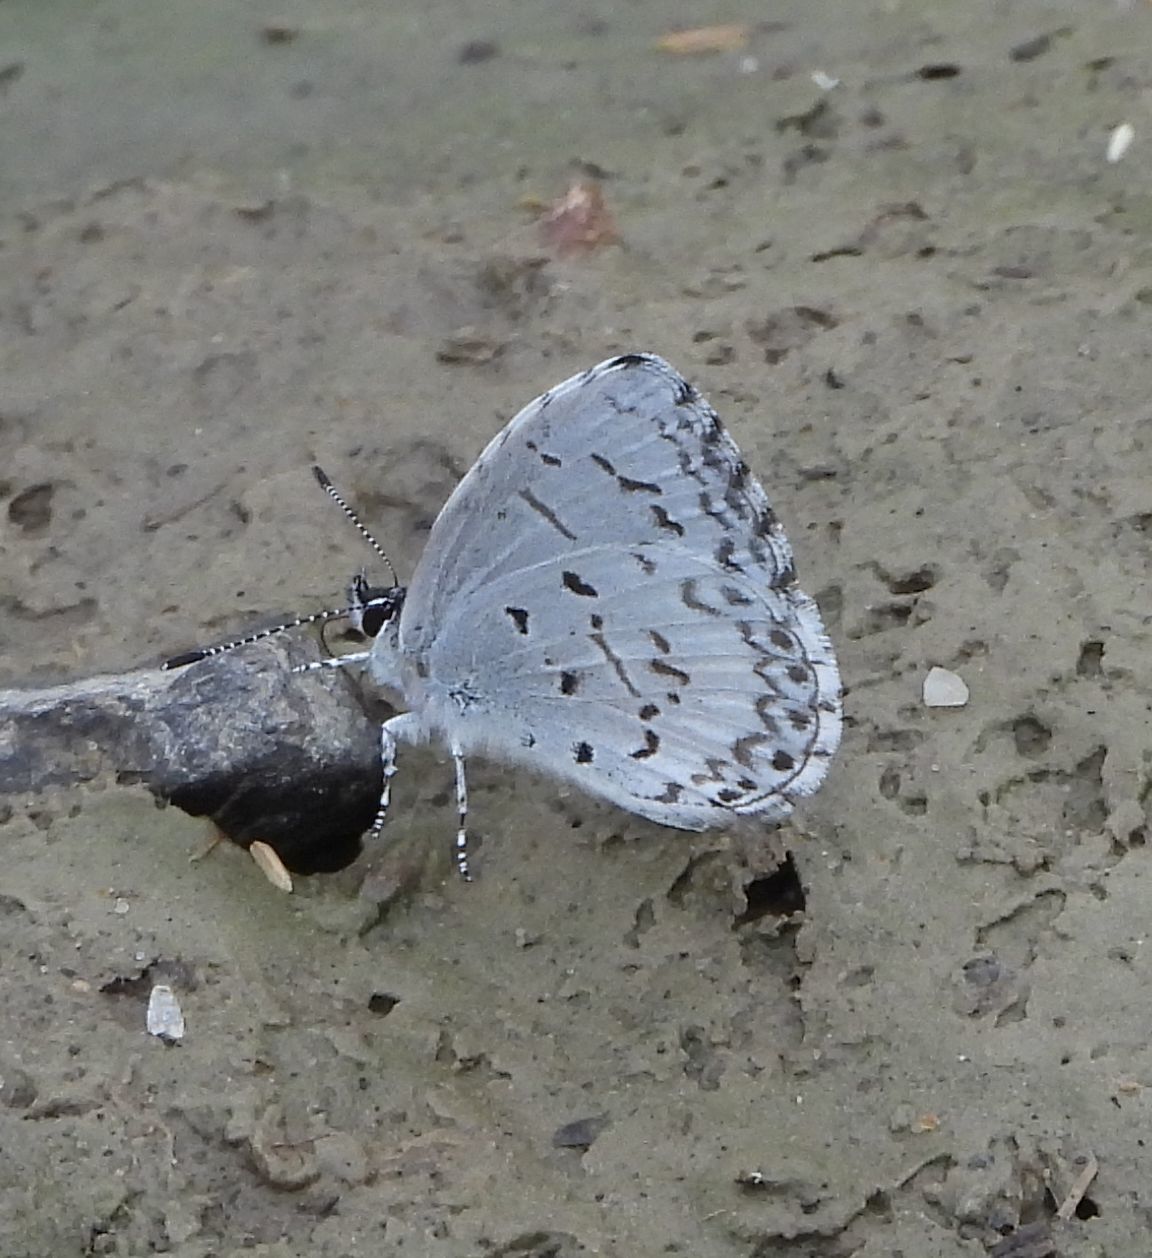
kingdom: Animalia
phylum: Arthropoda
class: Insecta
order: Lepidoptera
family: Lycaenidae
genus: Celastrina
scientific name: Celastrina lucia
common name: Lucia azure
